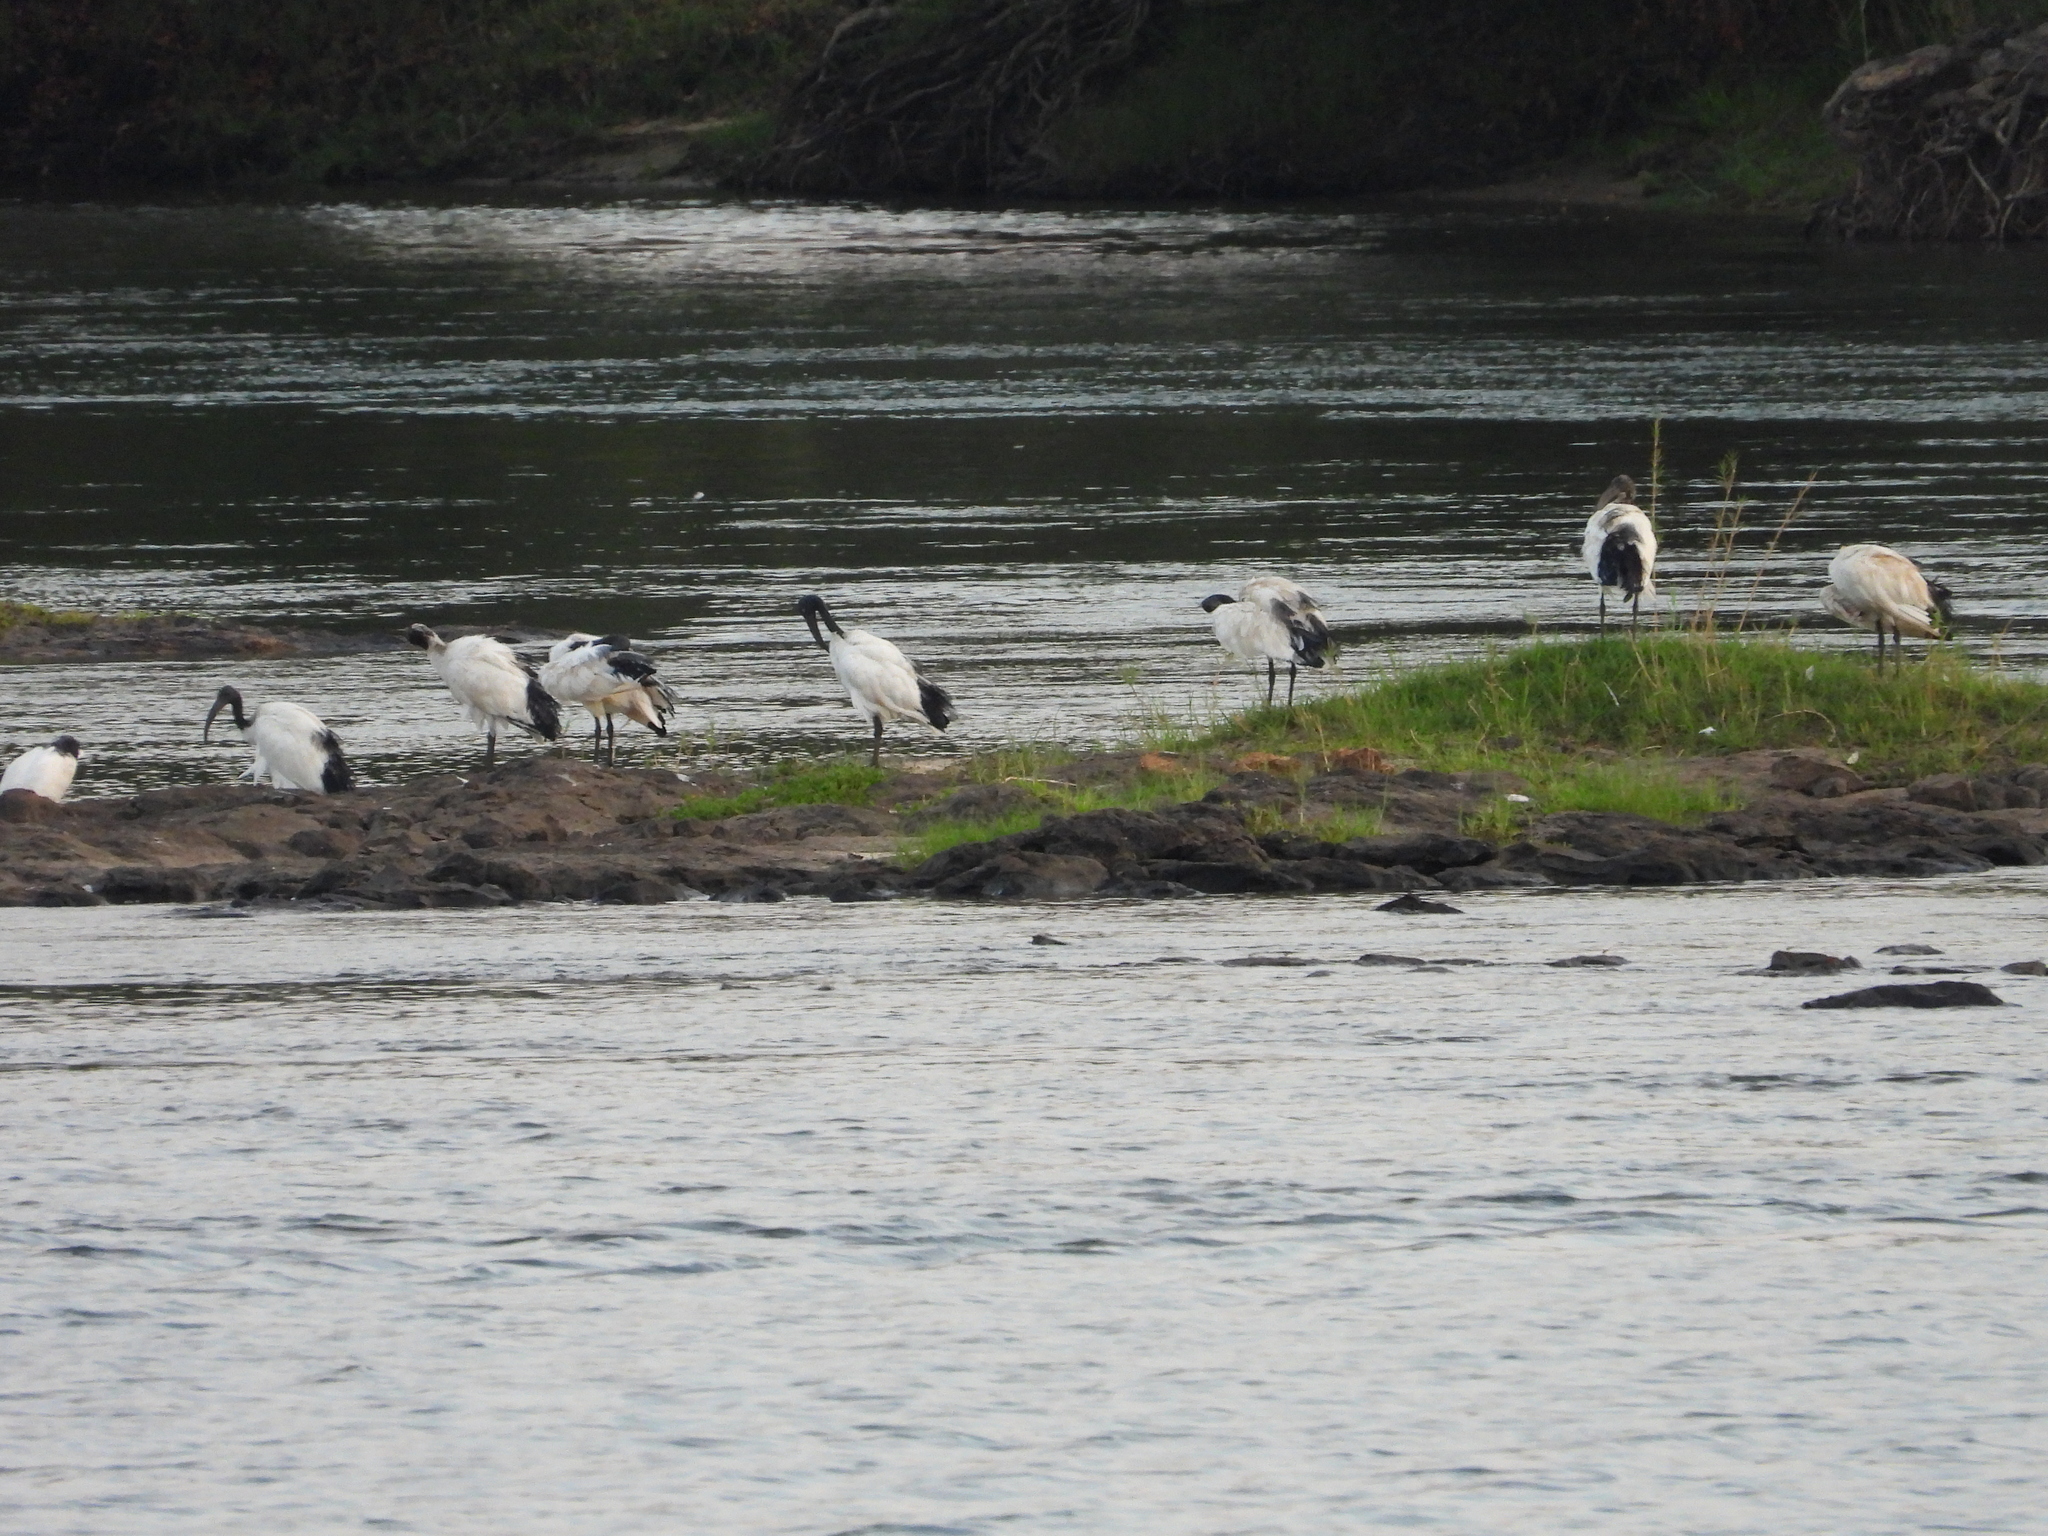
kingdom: Animalia
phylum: Chordata
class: Aves
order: Pelecaniformes
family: Threskiornithidae
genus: Threskiornis
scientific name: Threskiornis aethiopicus
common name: Sacred ibis
